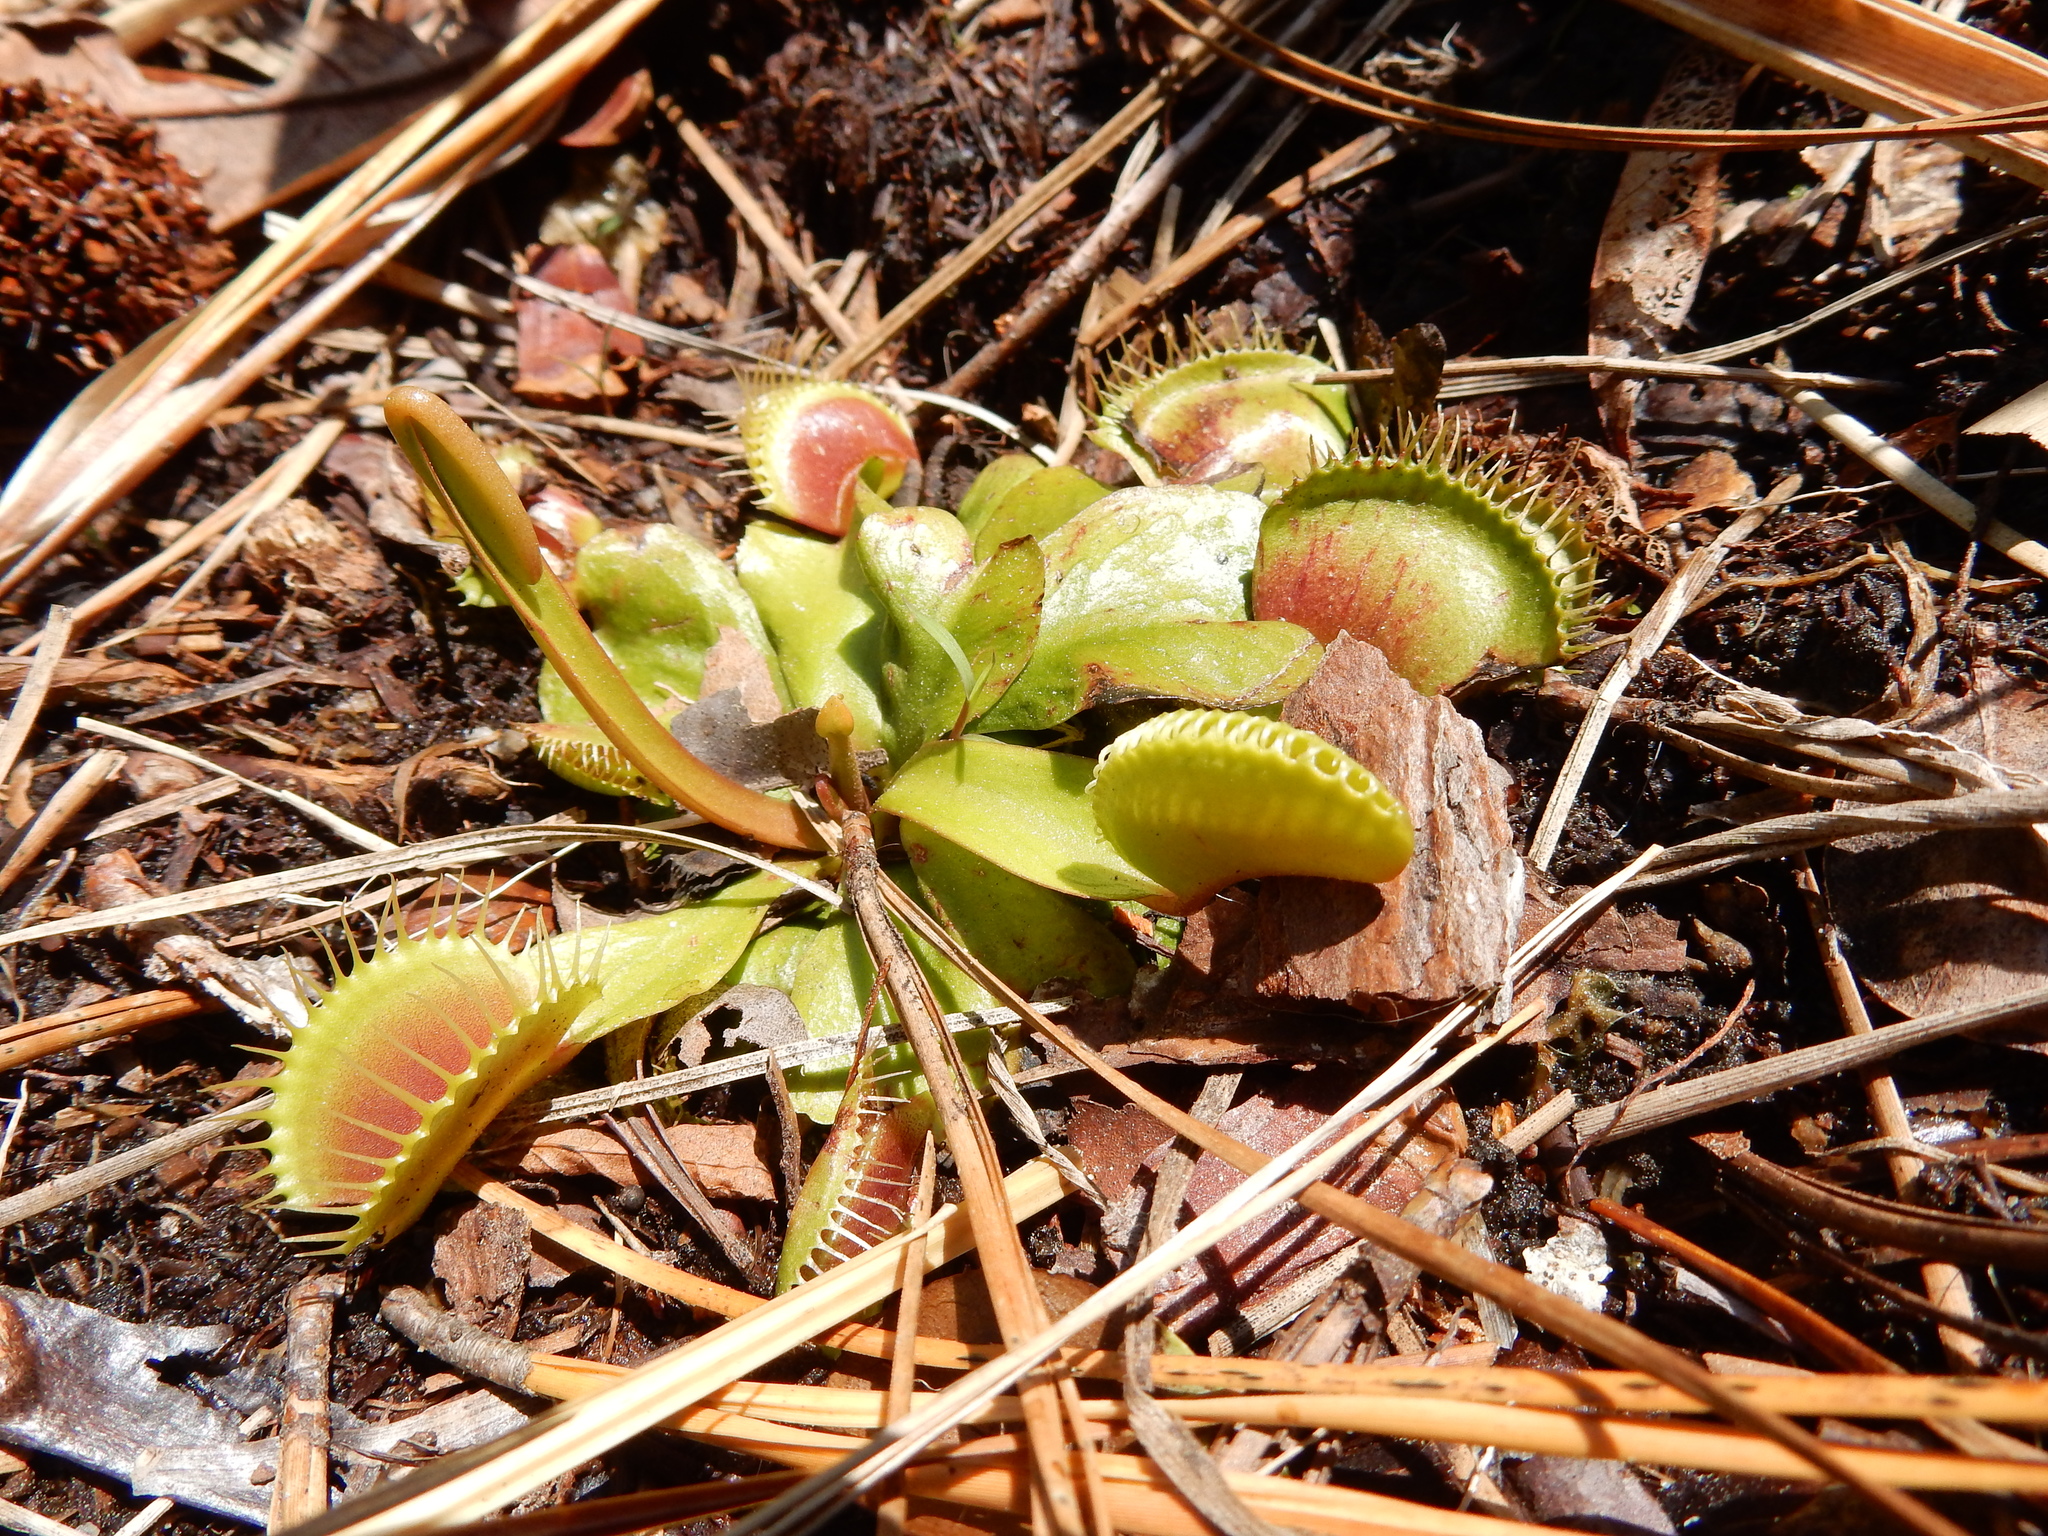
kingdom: Plantae
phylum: Tracheophyta
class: Magnoliopsida
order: Caryophyllales
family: Droseraceae
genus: Dionaea
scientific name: Dionaea muscipula
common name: Venus flytrap
